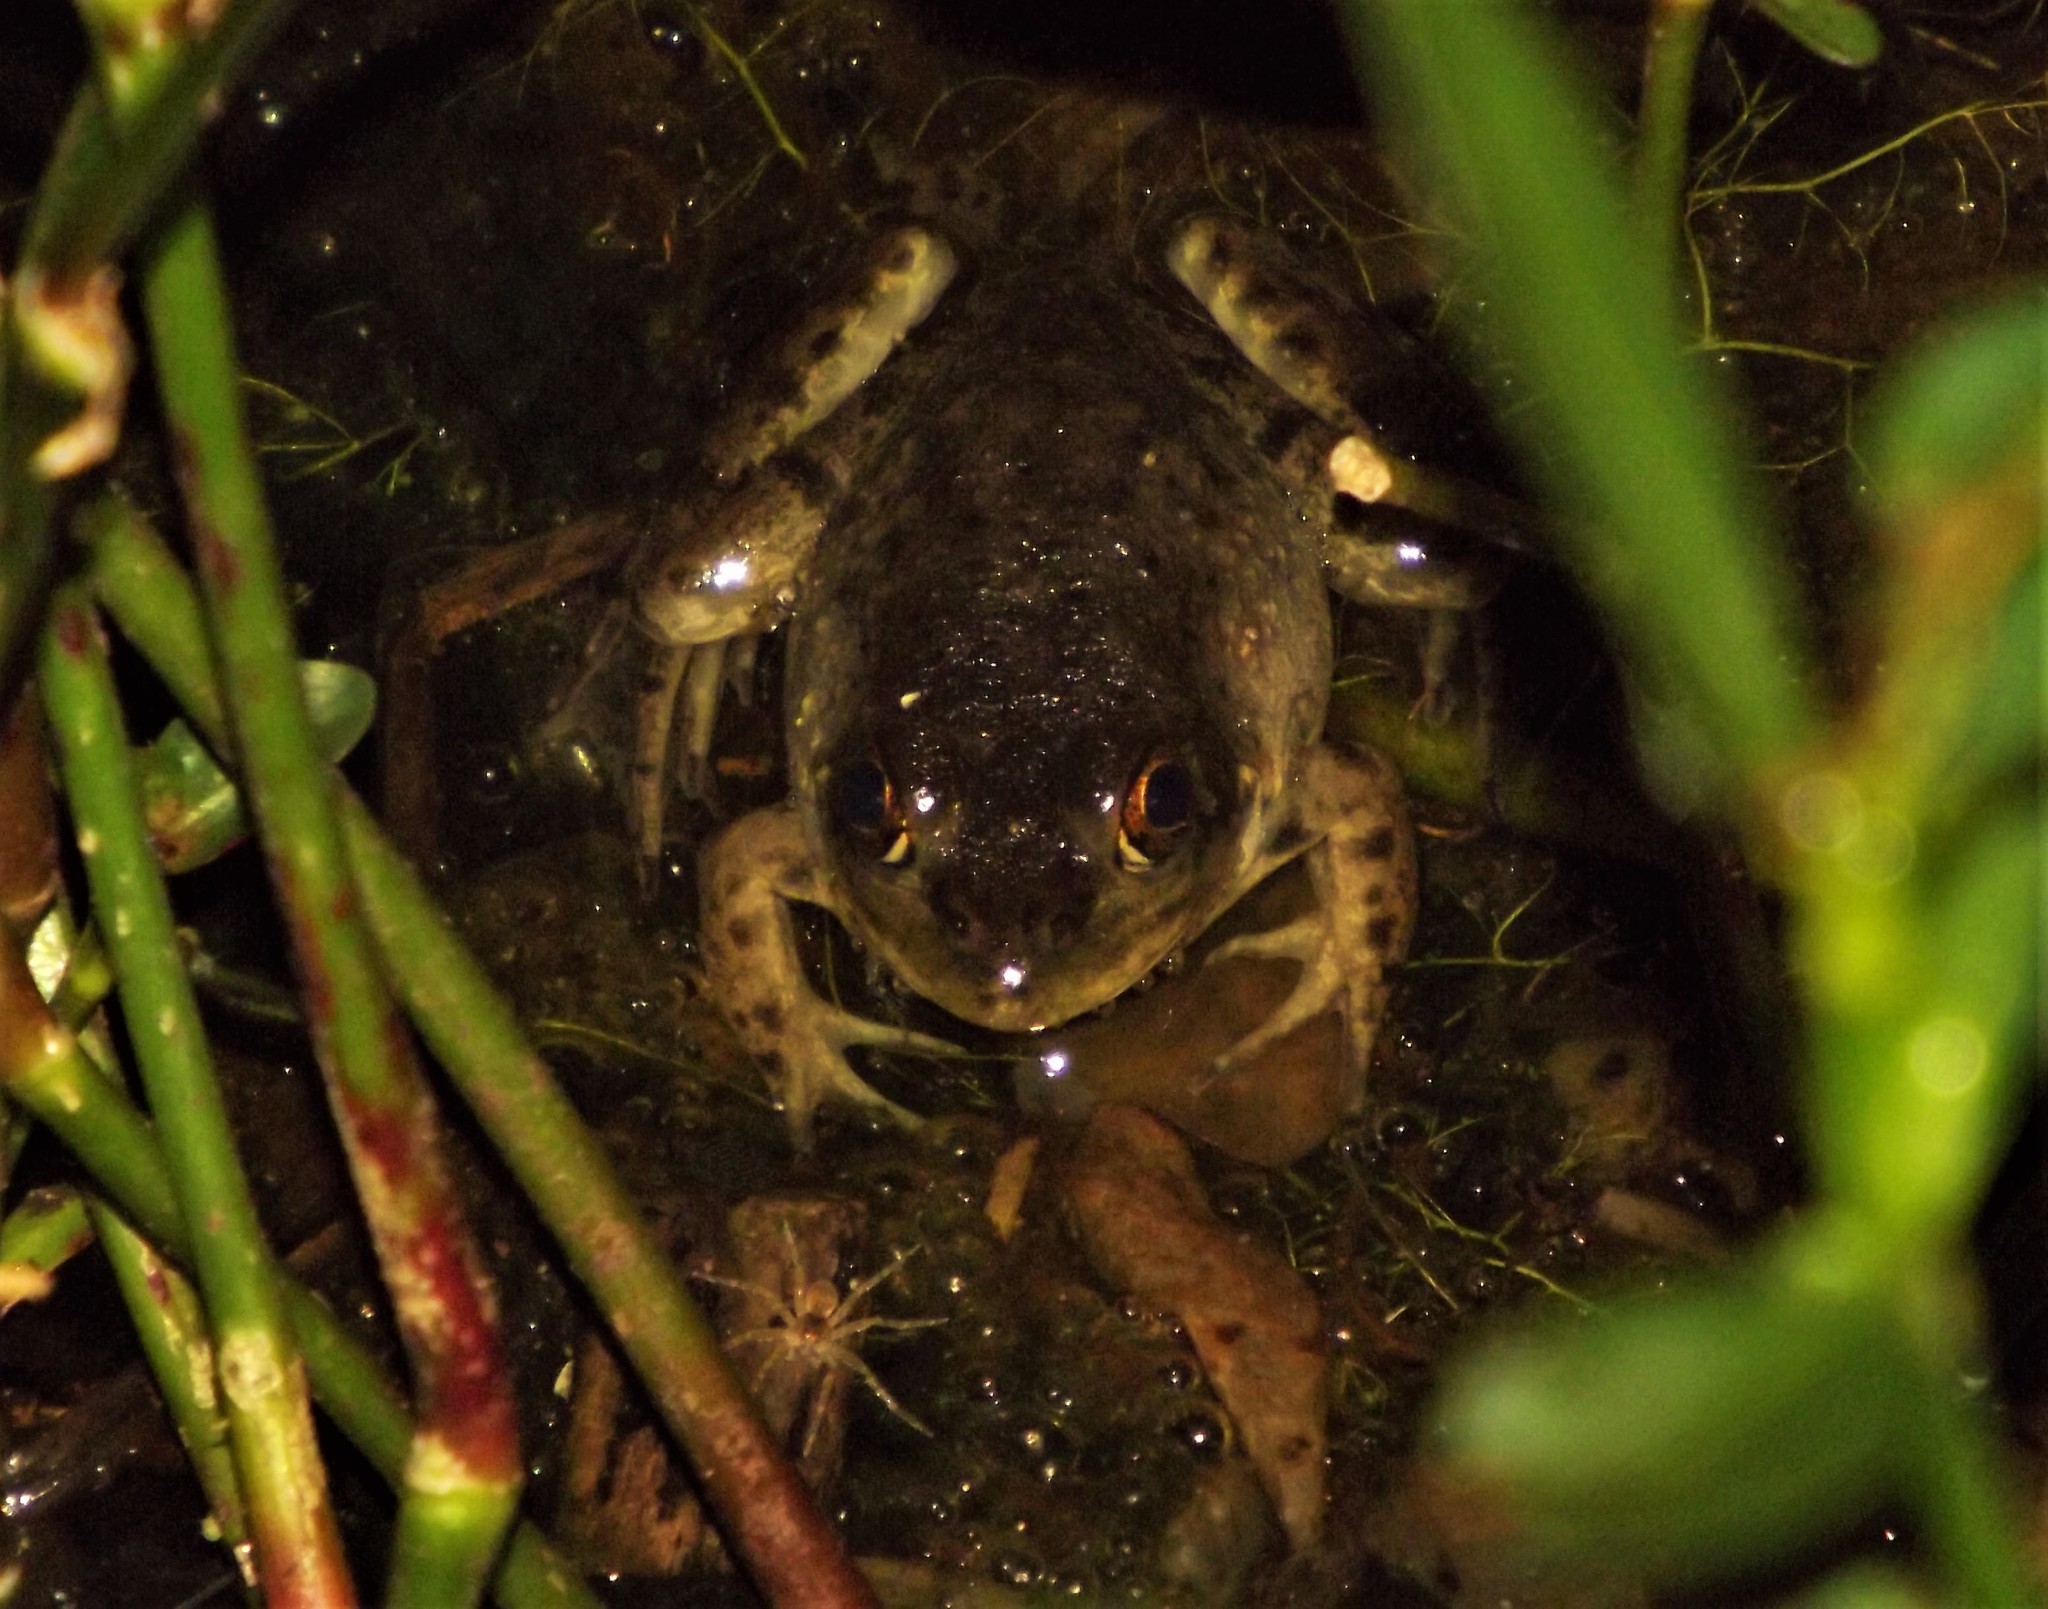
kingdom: Animalia
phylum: Chordata
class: Amphibia
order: Anura
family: Ranidae
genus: Lithobates
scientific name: Lithobates catesbeianus
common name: American bullfrog
